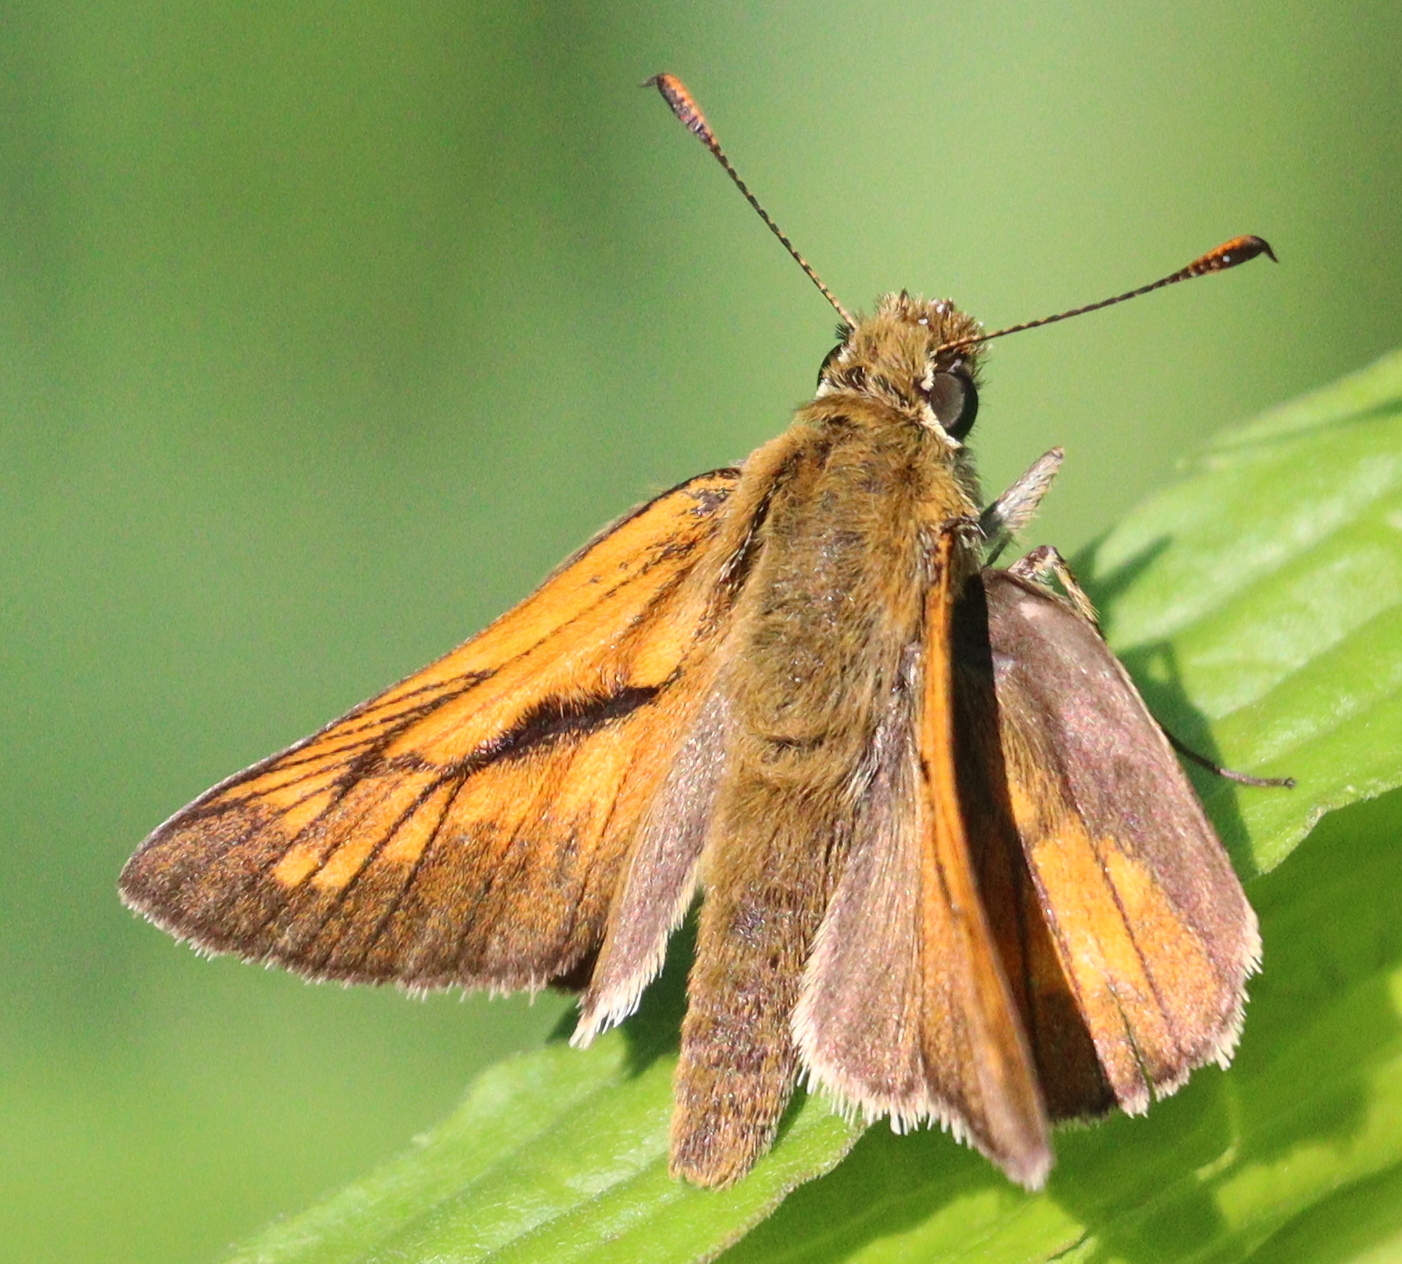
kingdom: Animalia
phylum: Arthropoda
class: Insecta
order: Lepidoptera
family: Hesperiidae
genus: Ochlodes
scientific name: Ochlodes venata
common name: Large skipper
